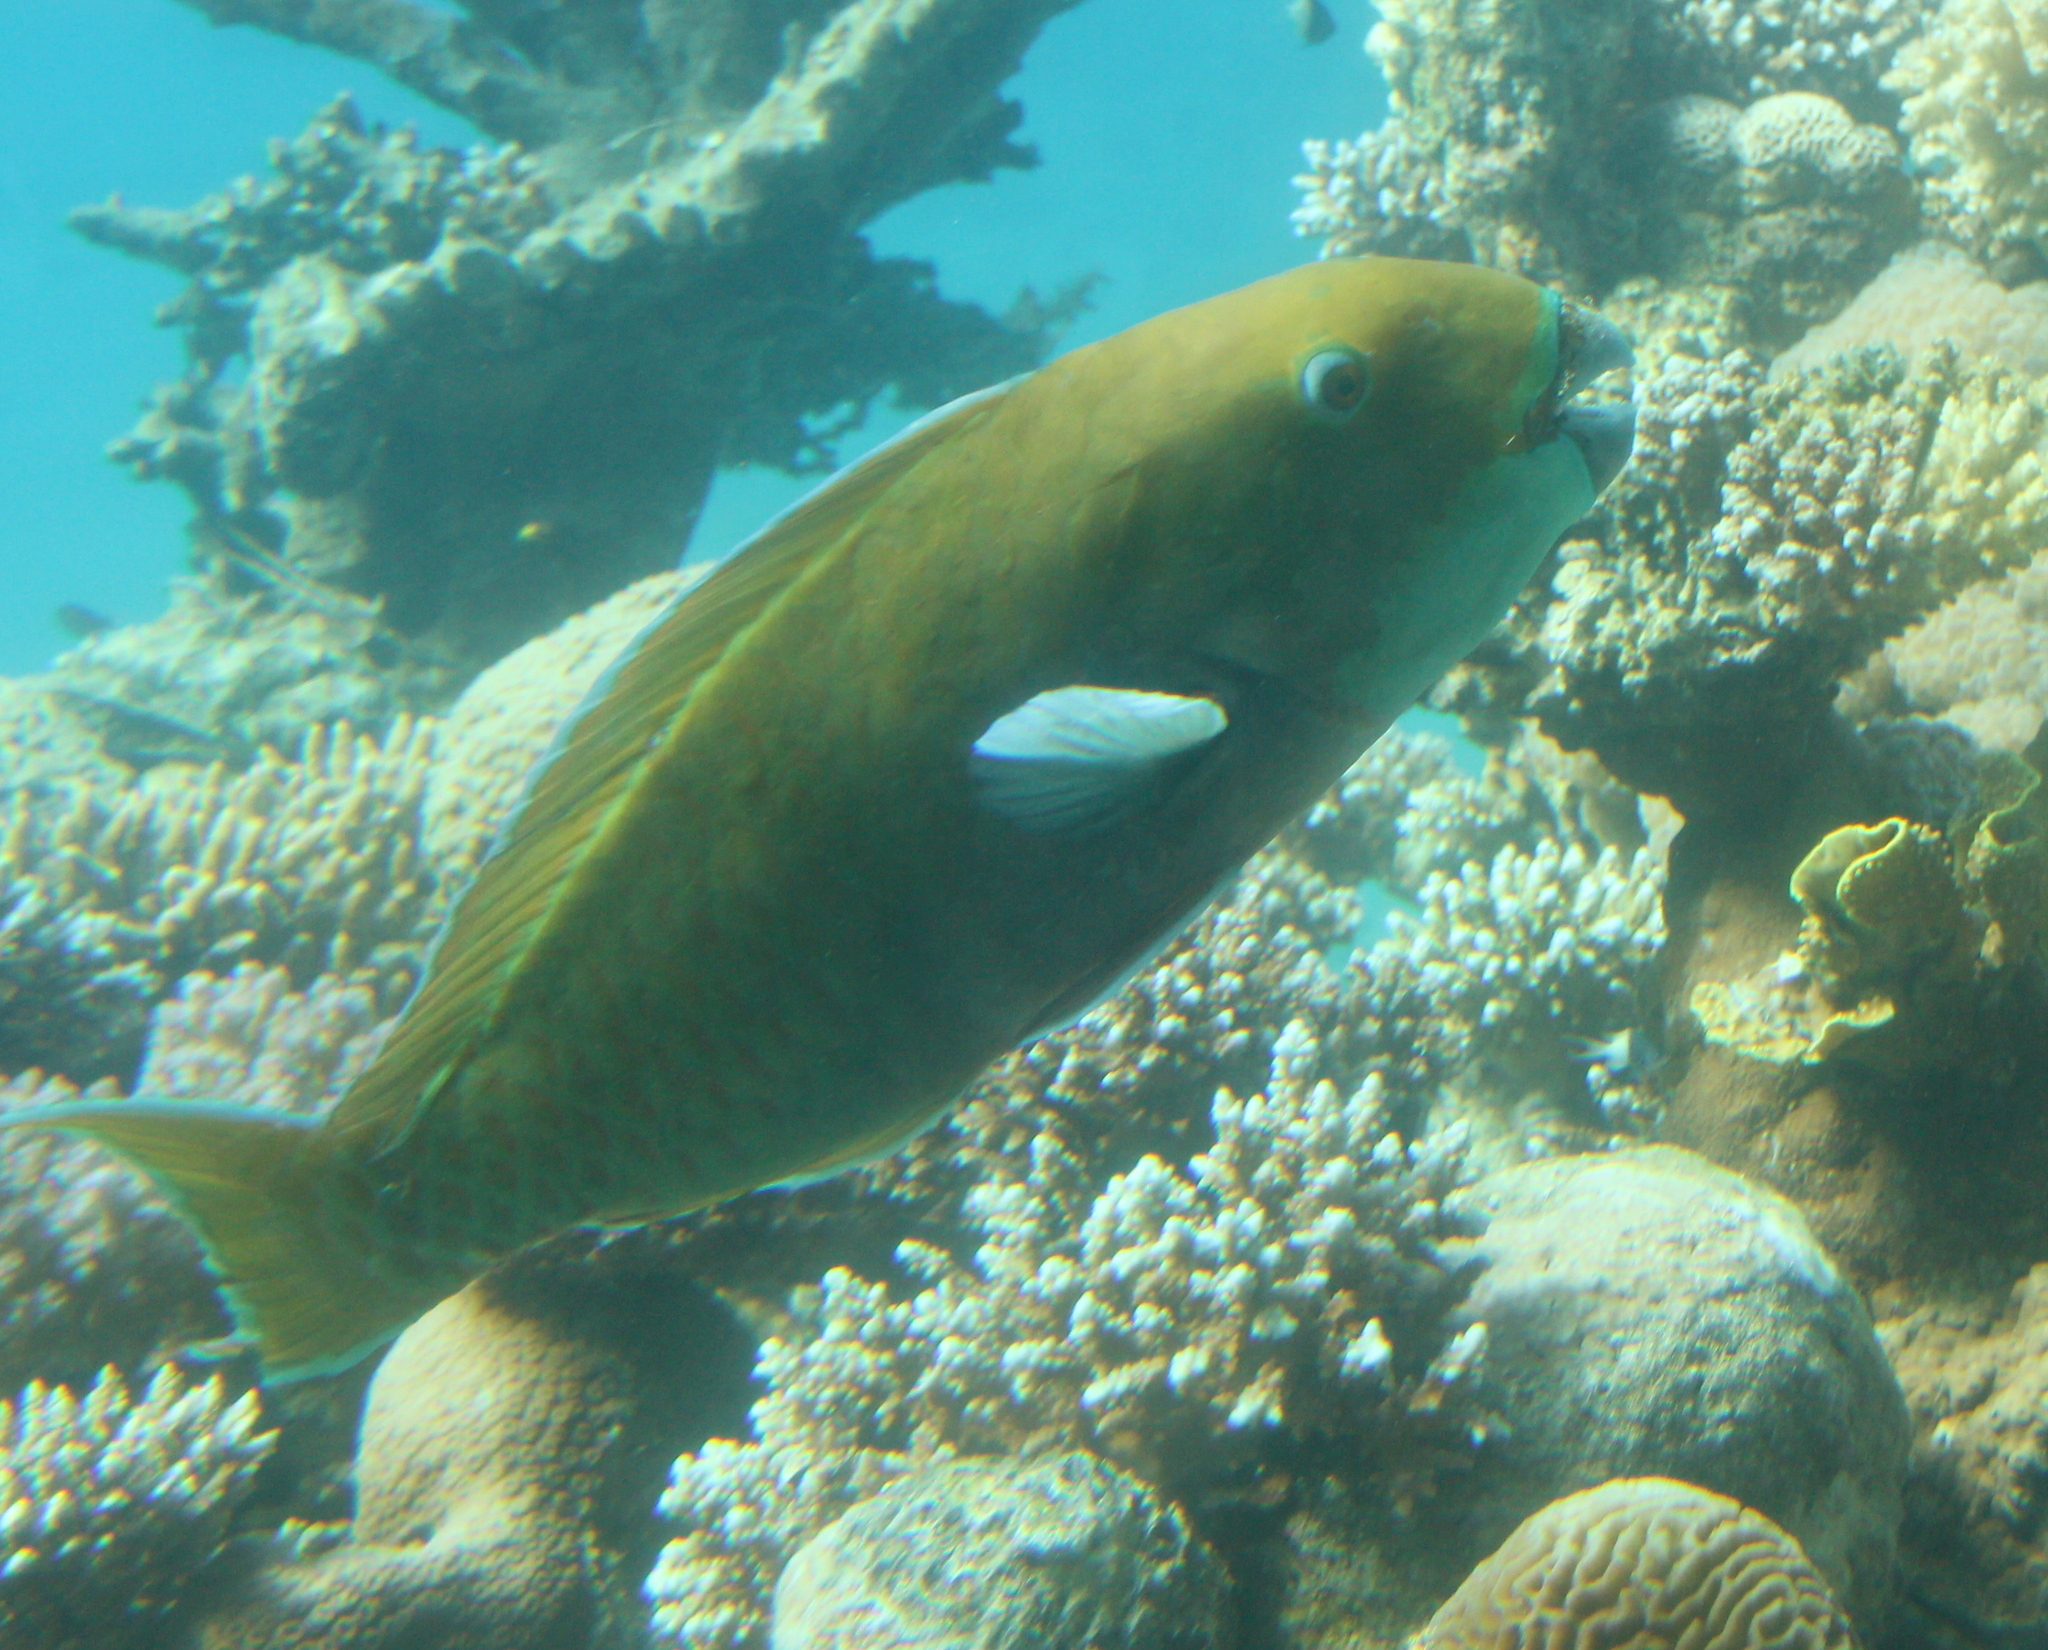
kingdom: Animalia
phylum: Chordata
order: Perciformes
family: Scaridae
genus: Chlorurus
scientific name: Chlorurus gibbus
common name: Heavybeak parrotfish
